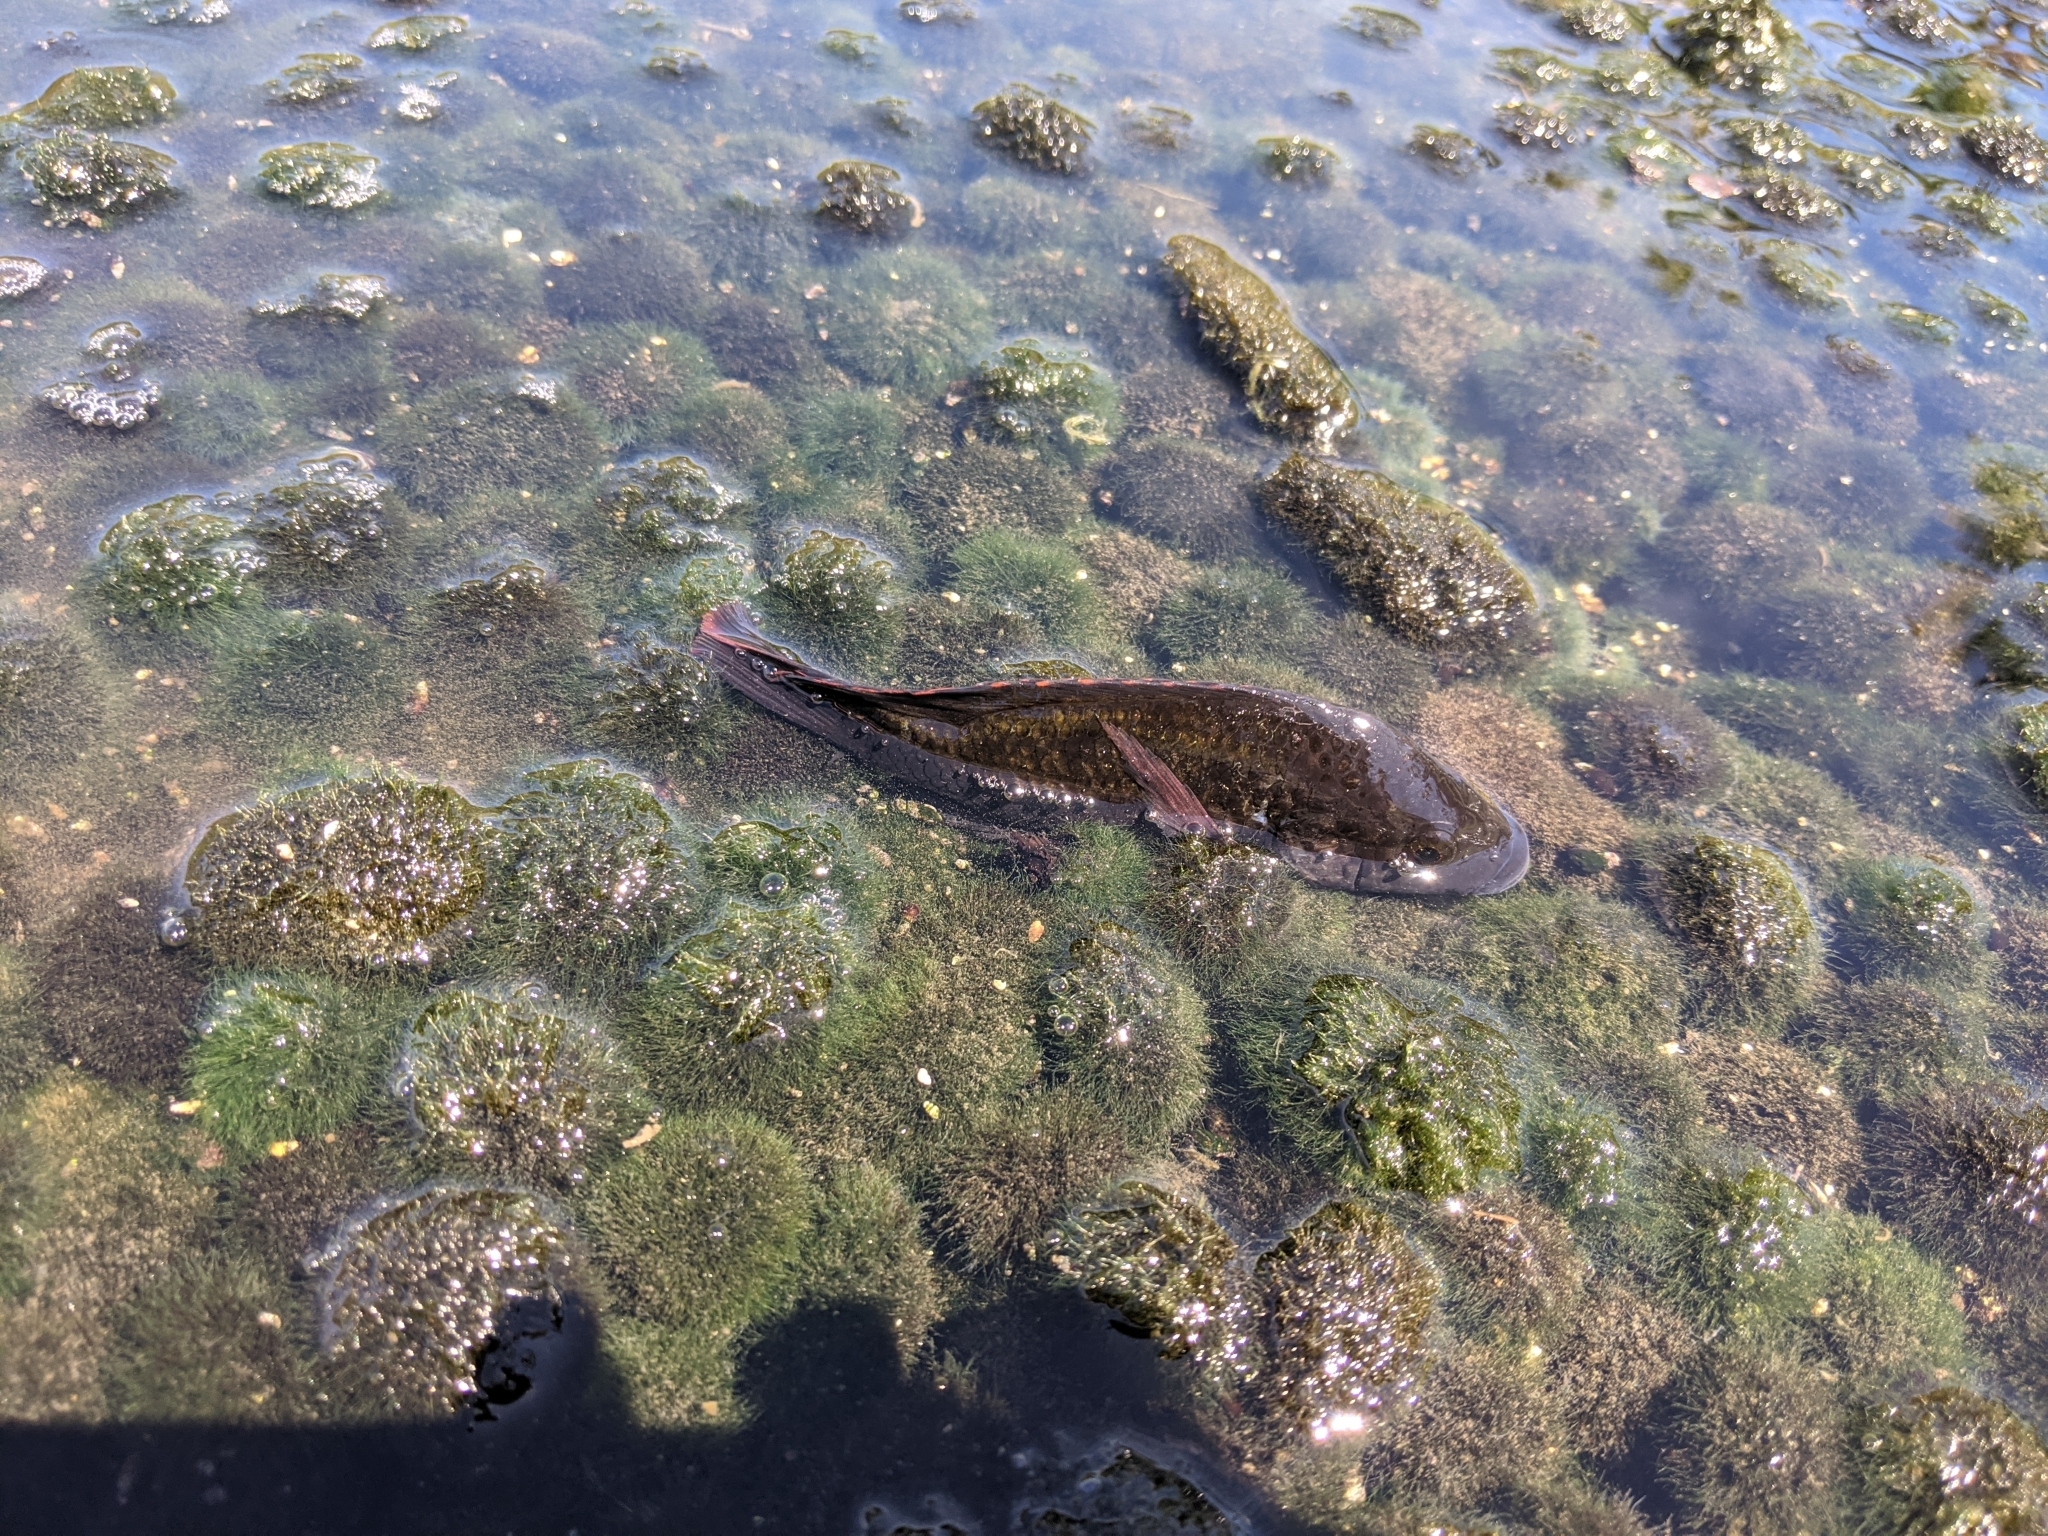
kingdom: Animalia
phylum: Chordata
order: Perciformes
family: Cichlidae
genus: Oreochromis
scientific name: Oreochromis mossambicus
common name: Mozambique tilapia
